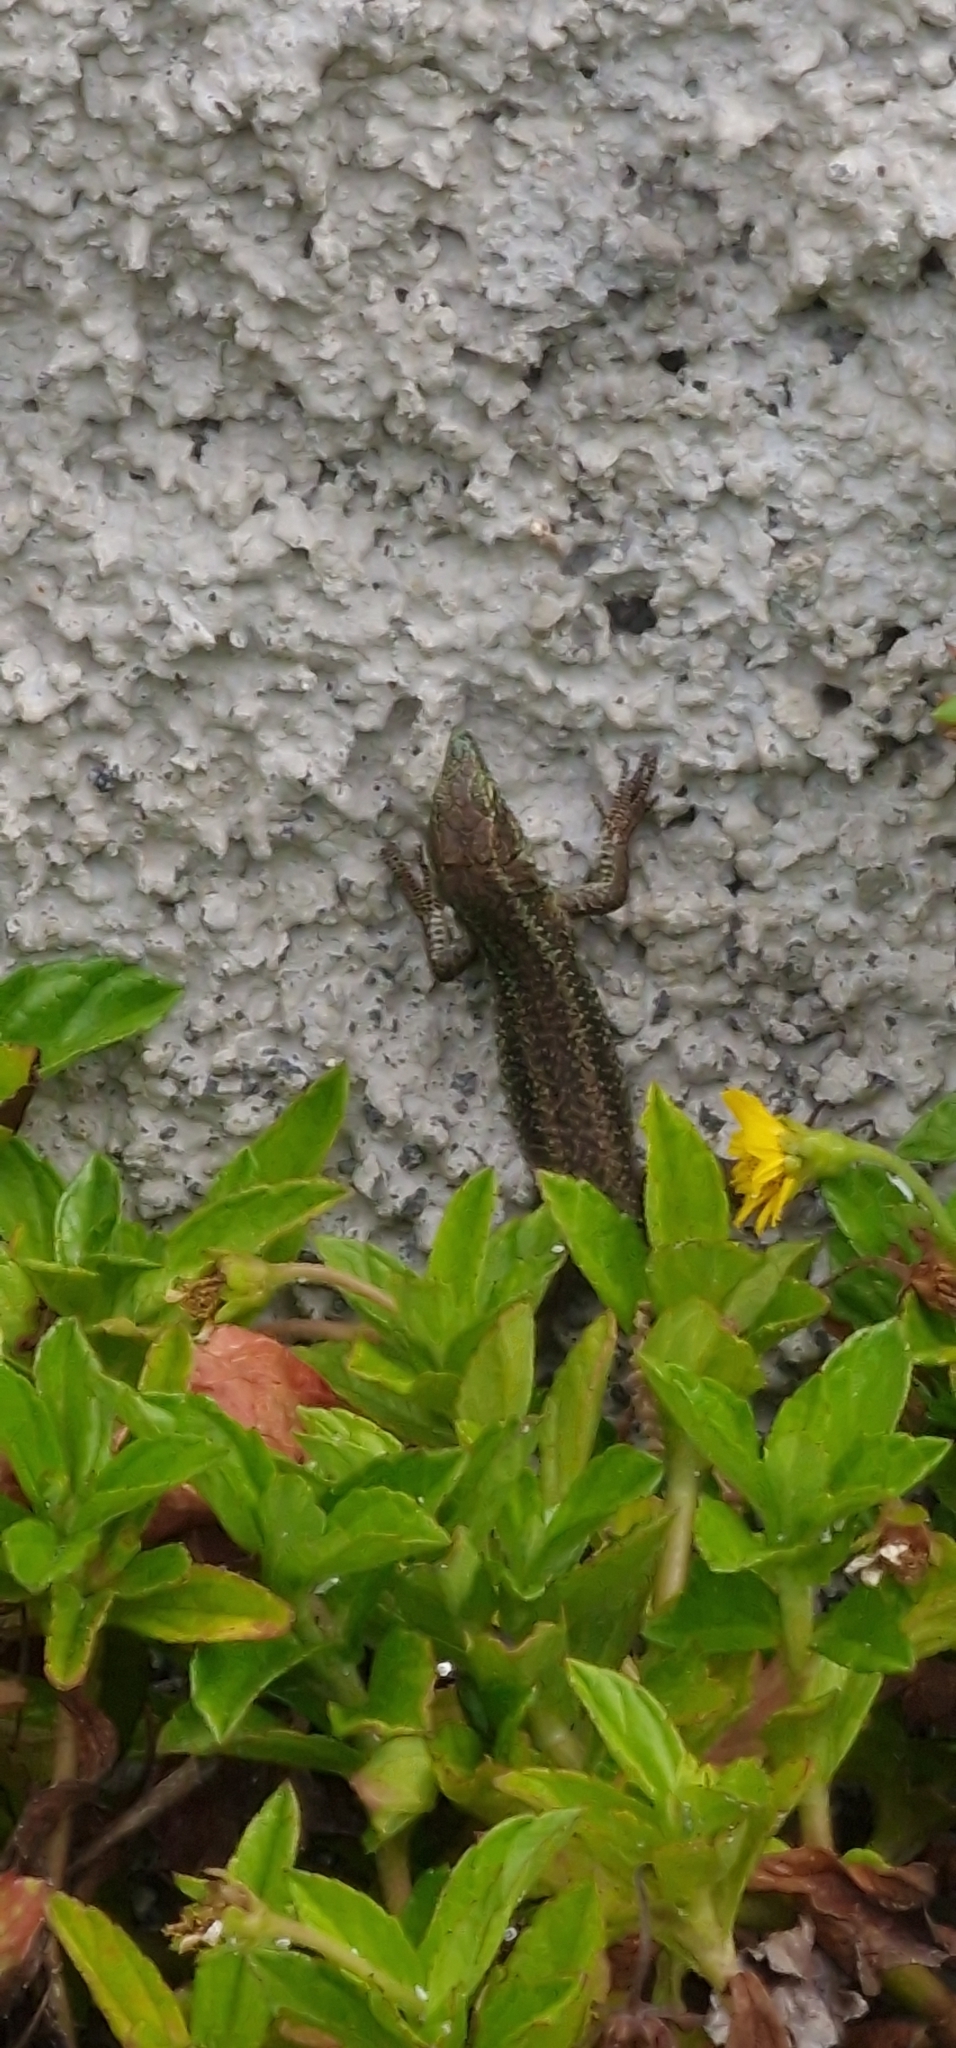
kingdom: Animalia
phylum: Chordata
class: Squamata
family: Lacertidae
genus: Teira
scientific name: Teira dugesii
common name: Madeira lizard
